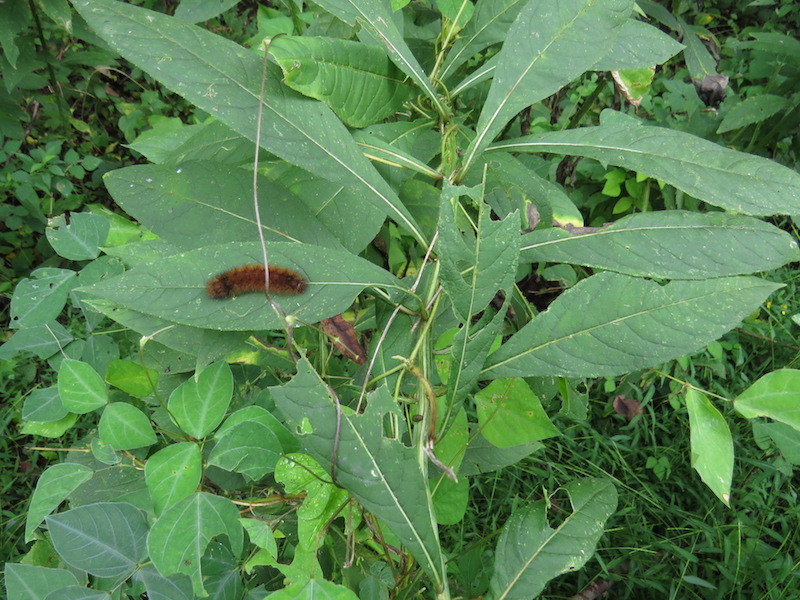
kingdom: Animalia
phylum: Arthropoda
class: Insecta
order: Lepidoptera
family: Erebidae
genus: Pyrrharctia
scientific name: Pyrrharctia isabella
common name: Isabella tiger moth
